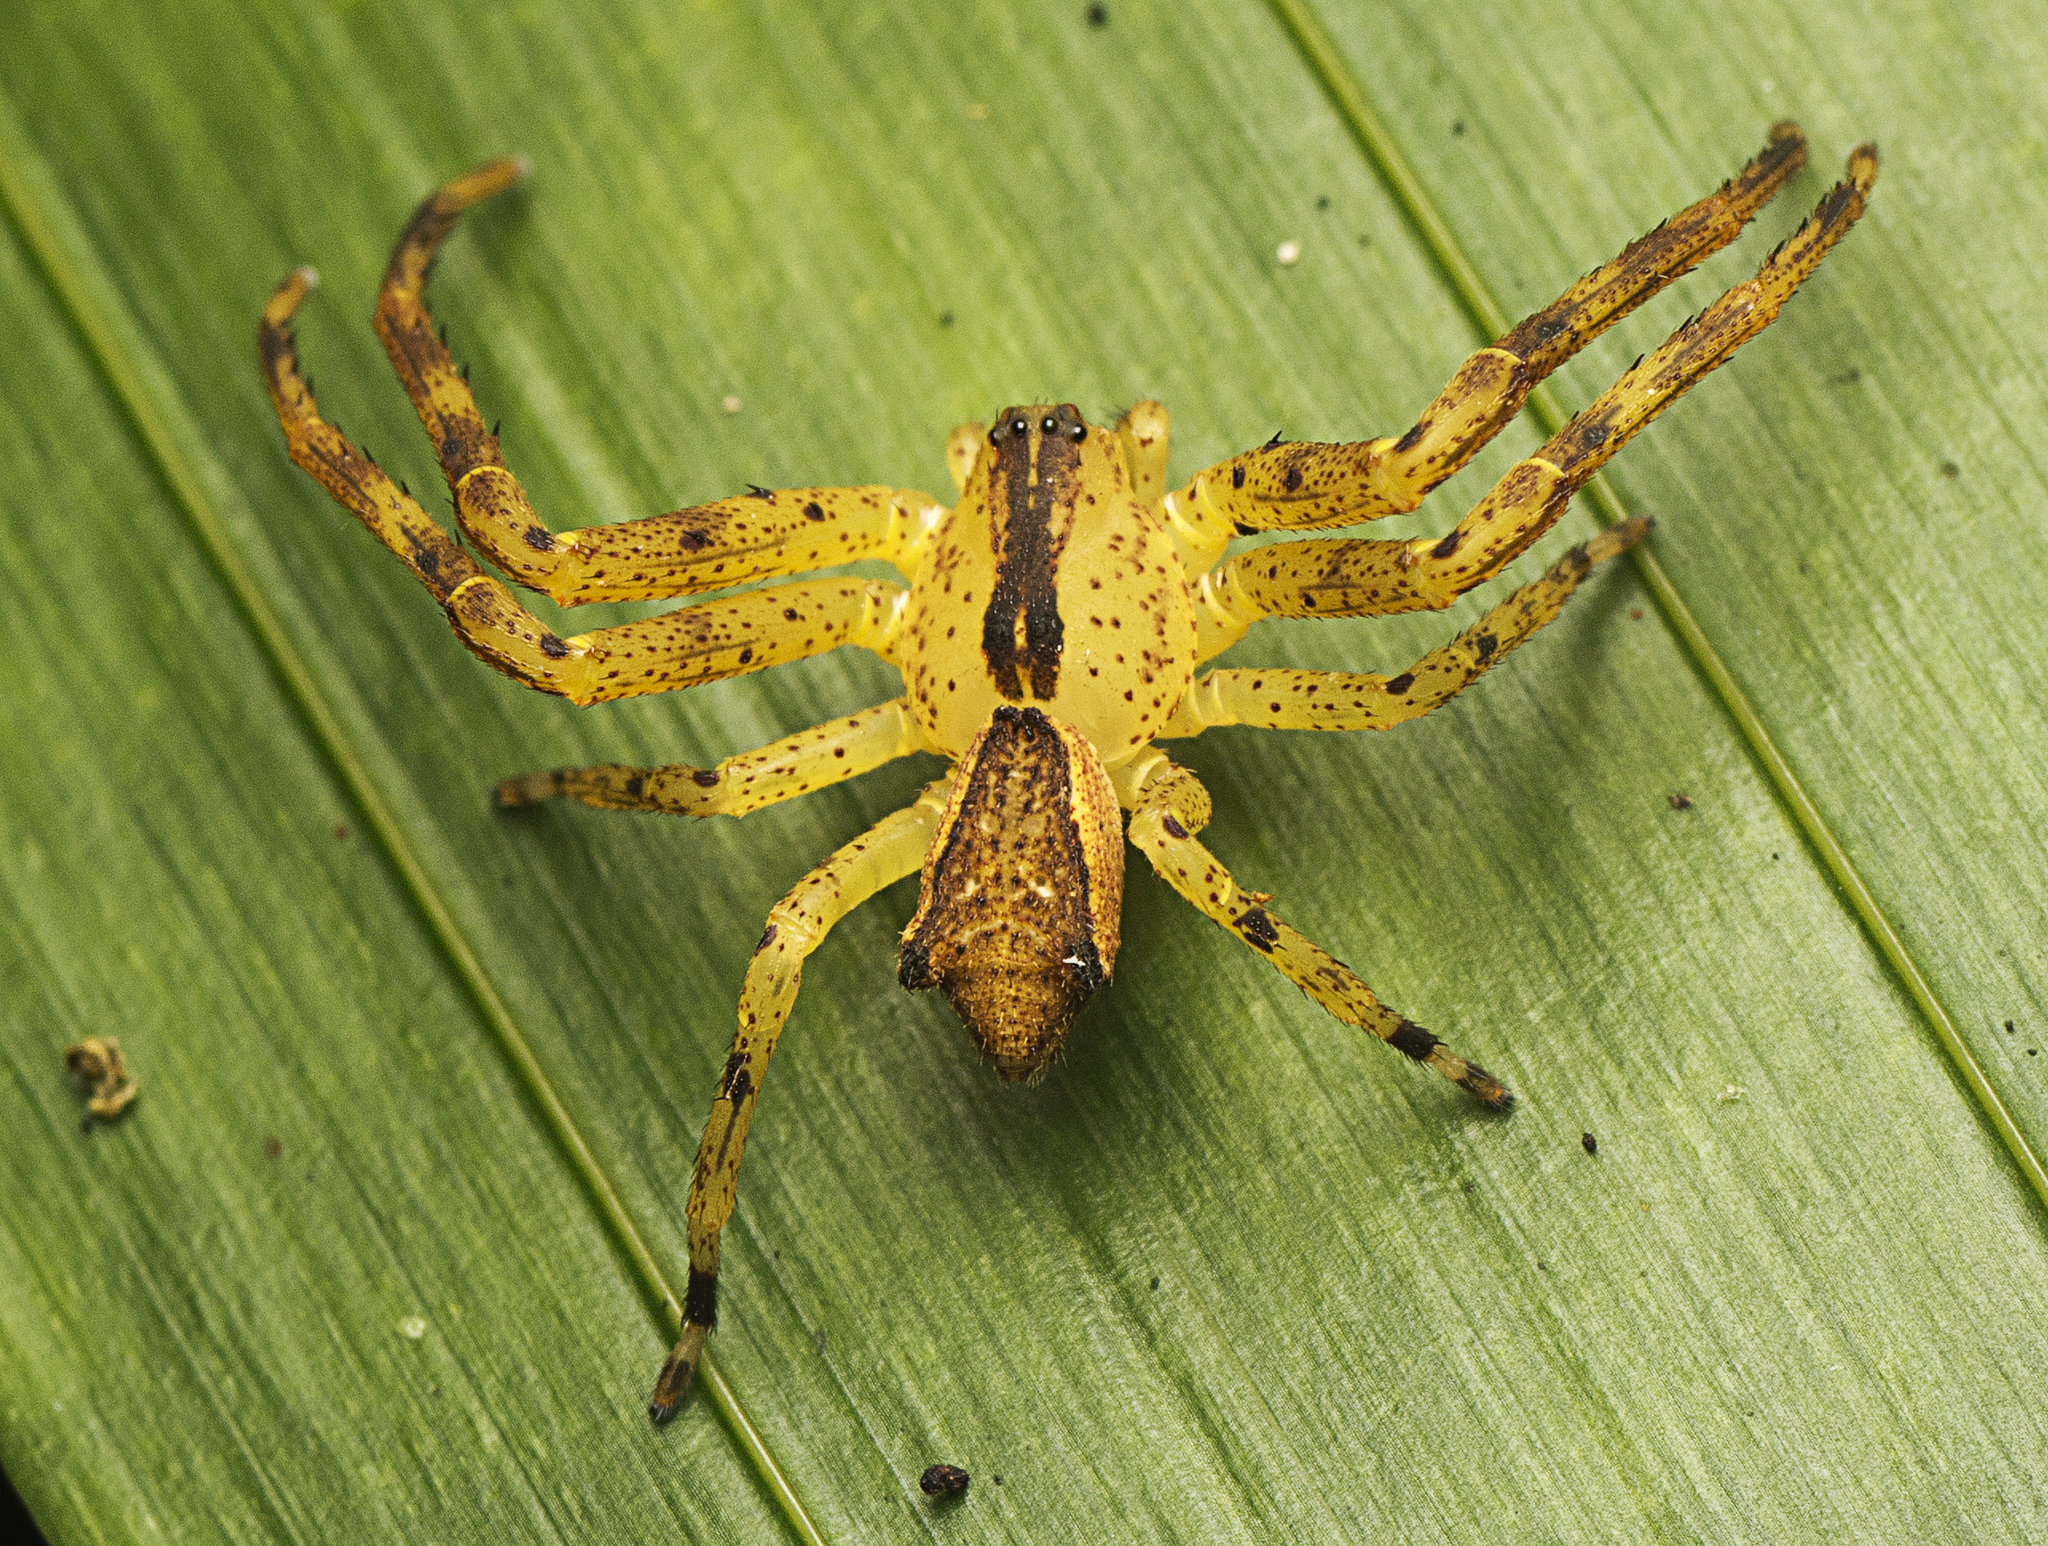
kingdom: Animalia
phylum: Arthropoda
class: Arachnida
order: Araneae
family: Thomisidae
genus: Sidymella
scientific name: Sidymella rubrosignata
